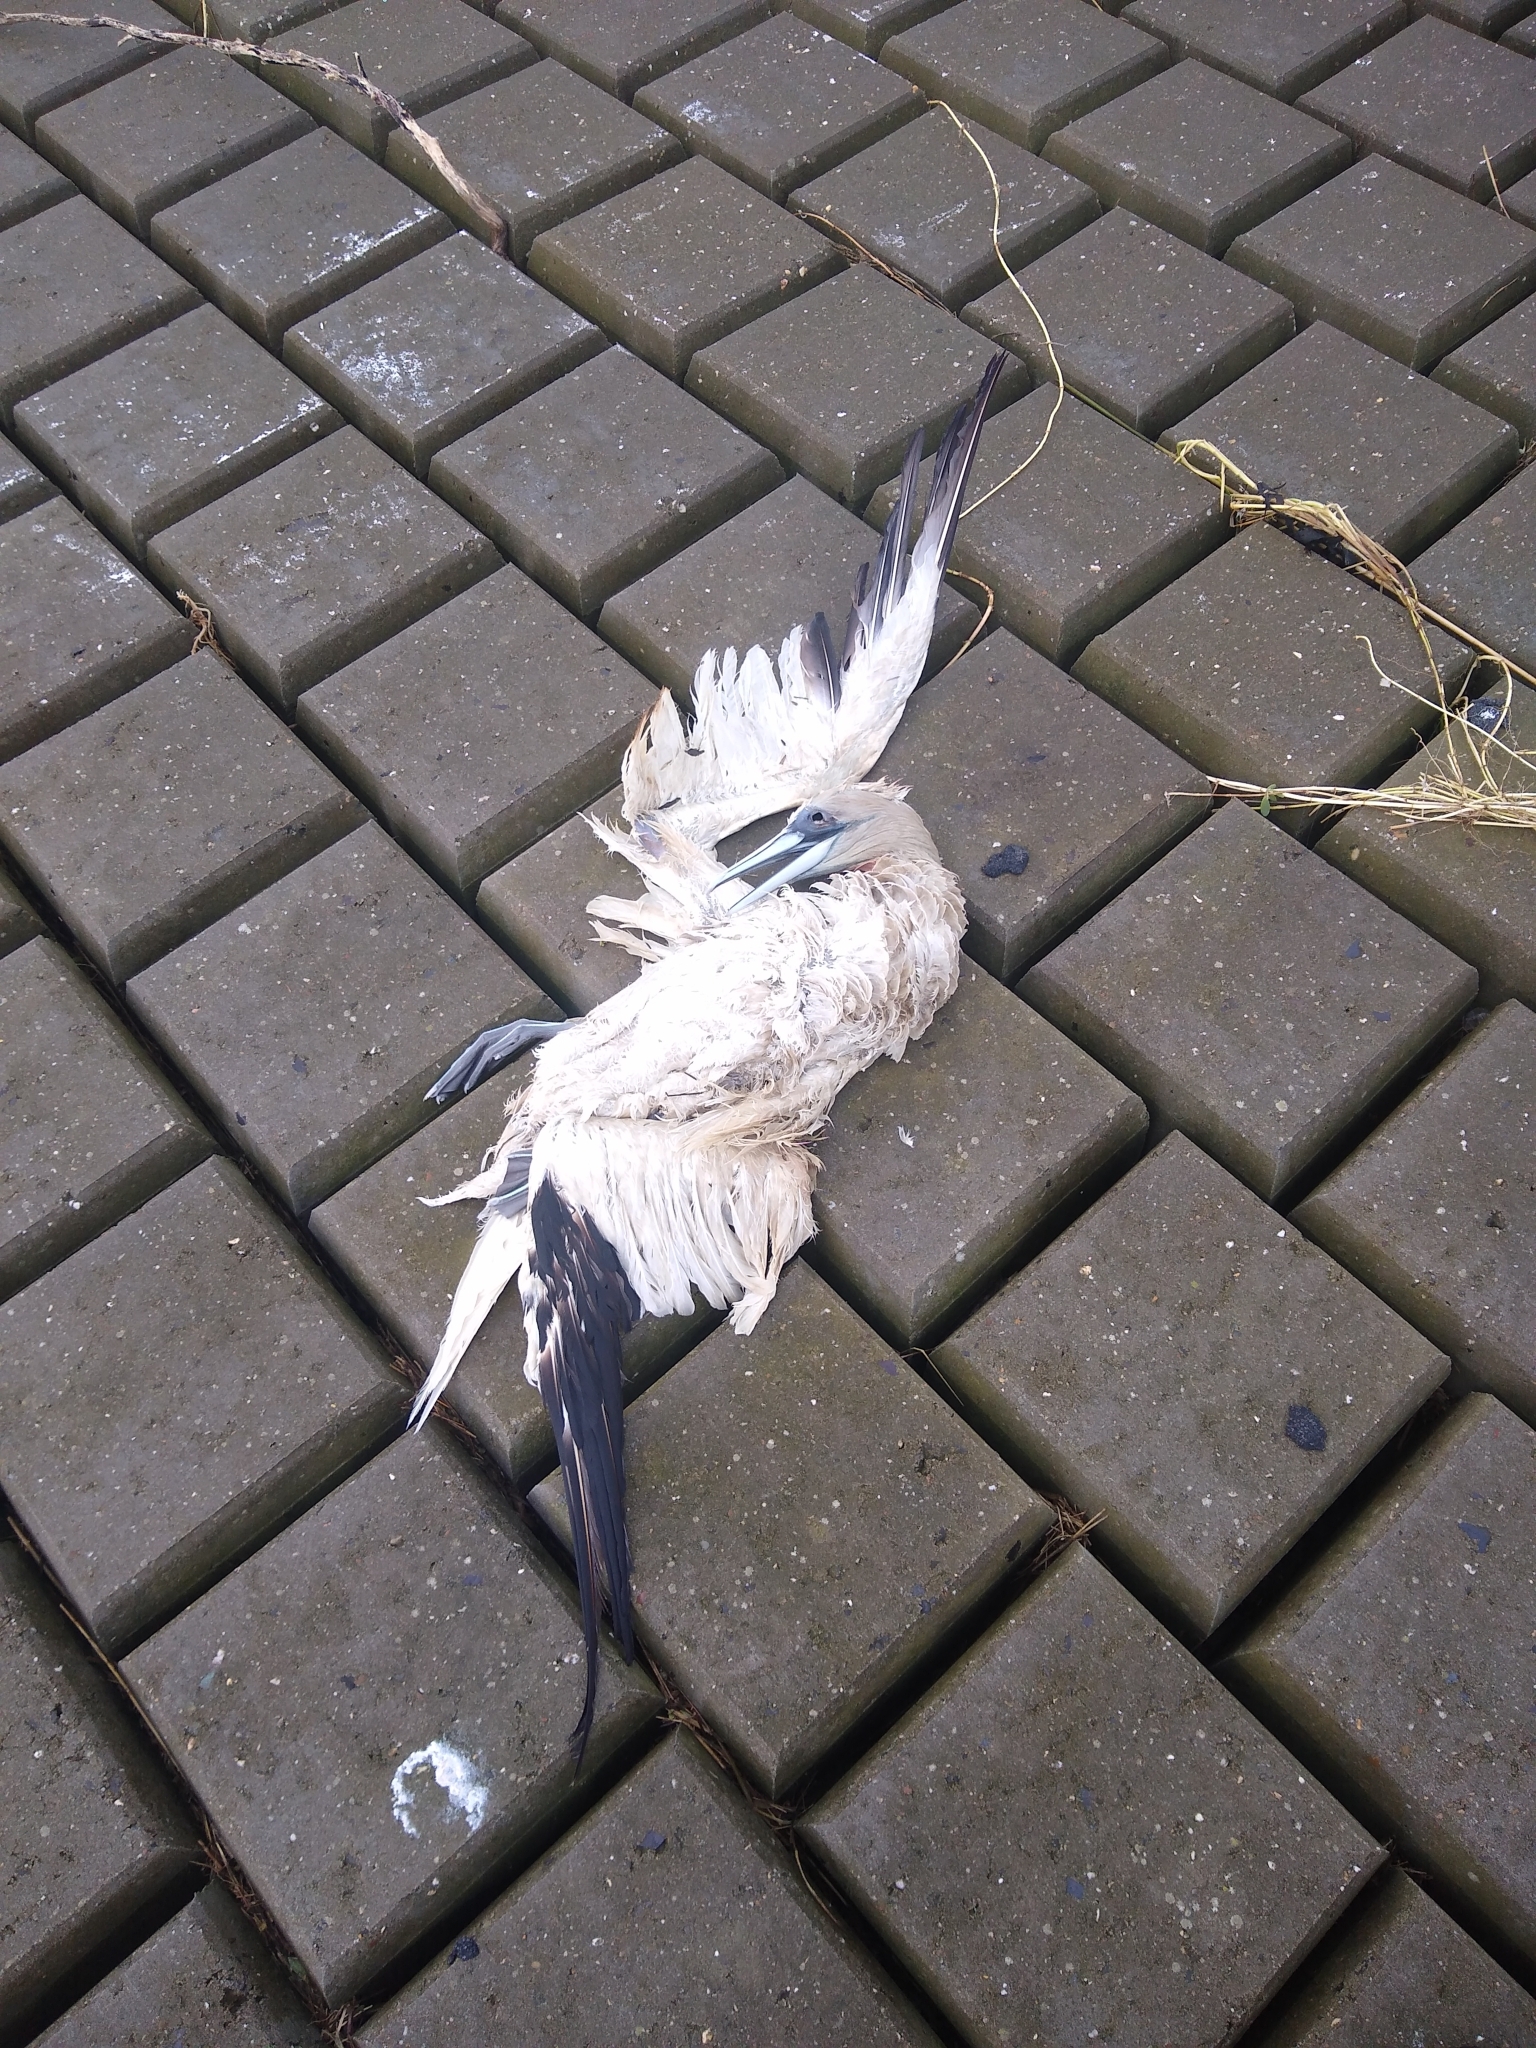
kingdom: Animalia
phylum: Chordata
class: Aves
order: Suliformes
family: Sulidae
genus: Morus
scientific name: Morus bassanus
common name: Northern gannet
